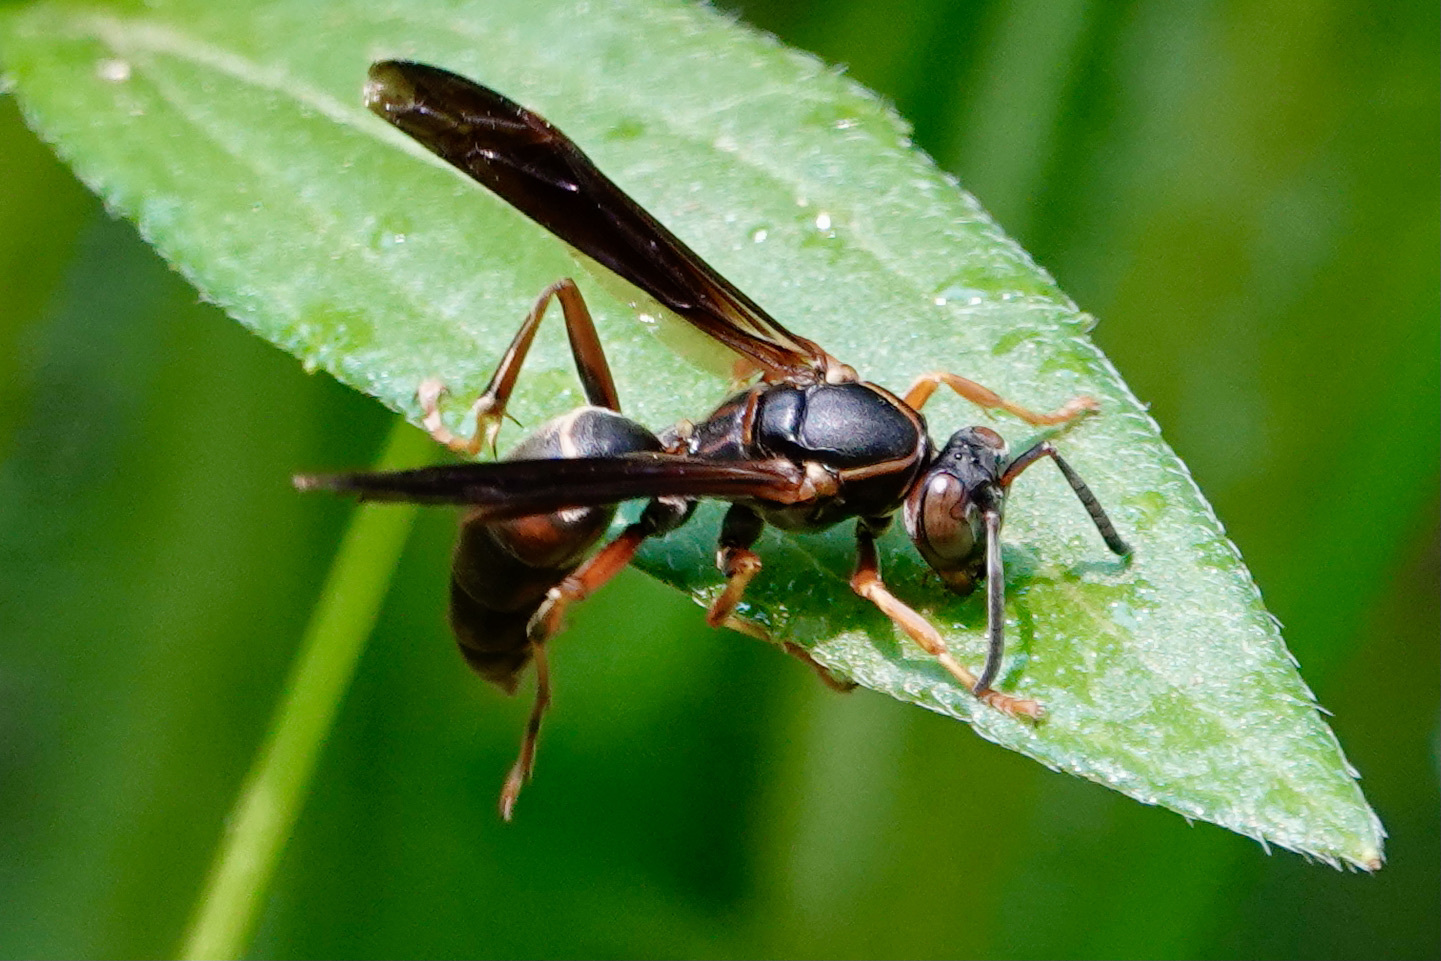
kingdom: Animalia
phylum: Arthropoda
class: Insecta
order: Hymenoptera
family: Eumenidae
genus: Polistes
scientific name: Polistes fuscatus
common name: Dark paper wasp
